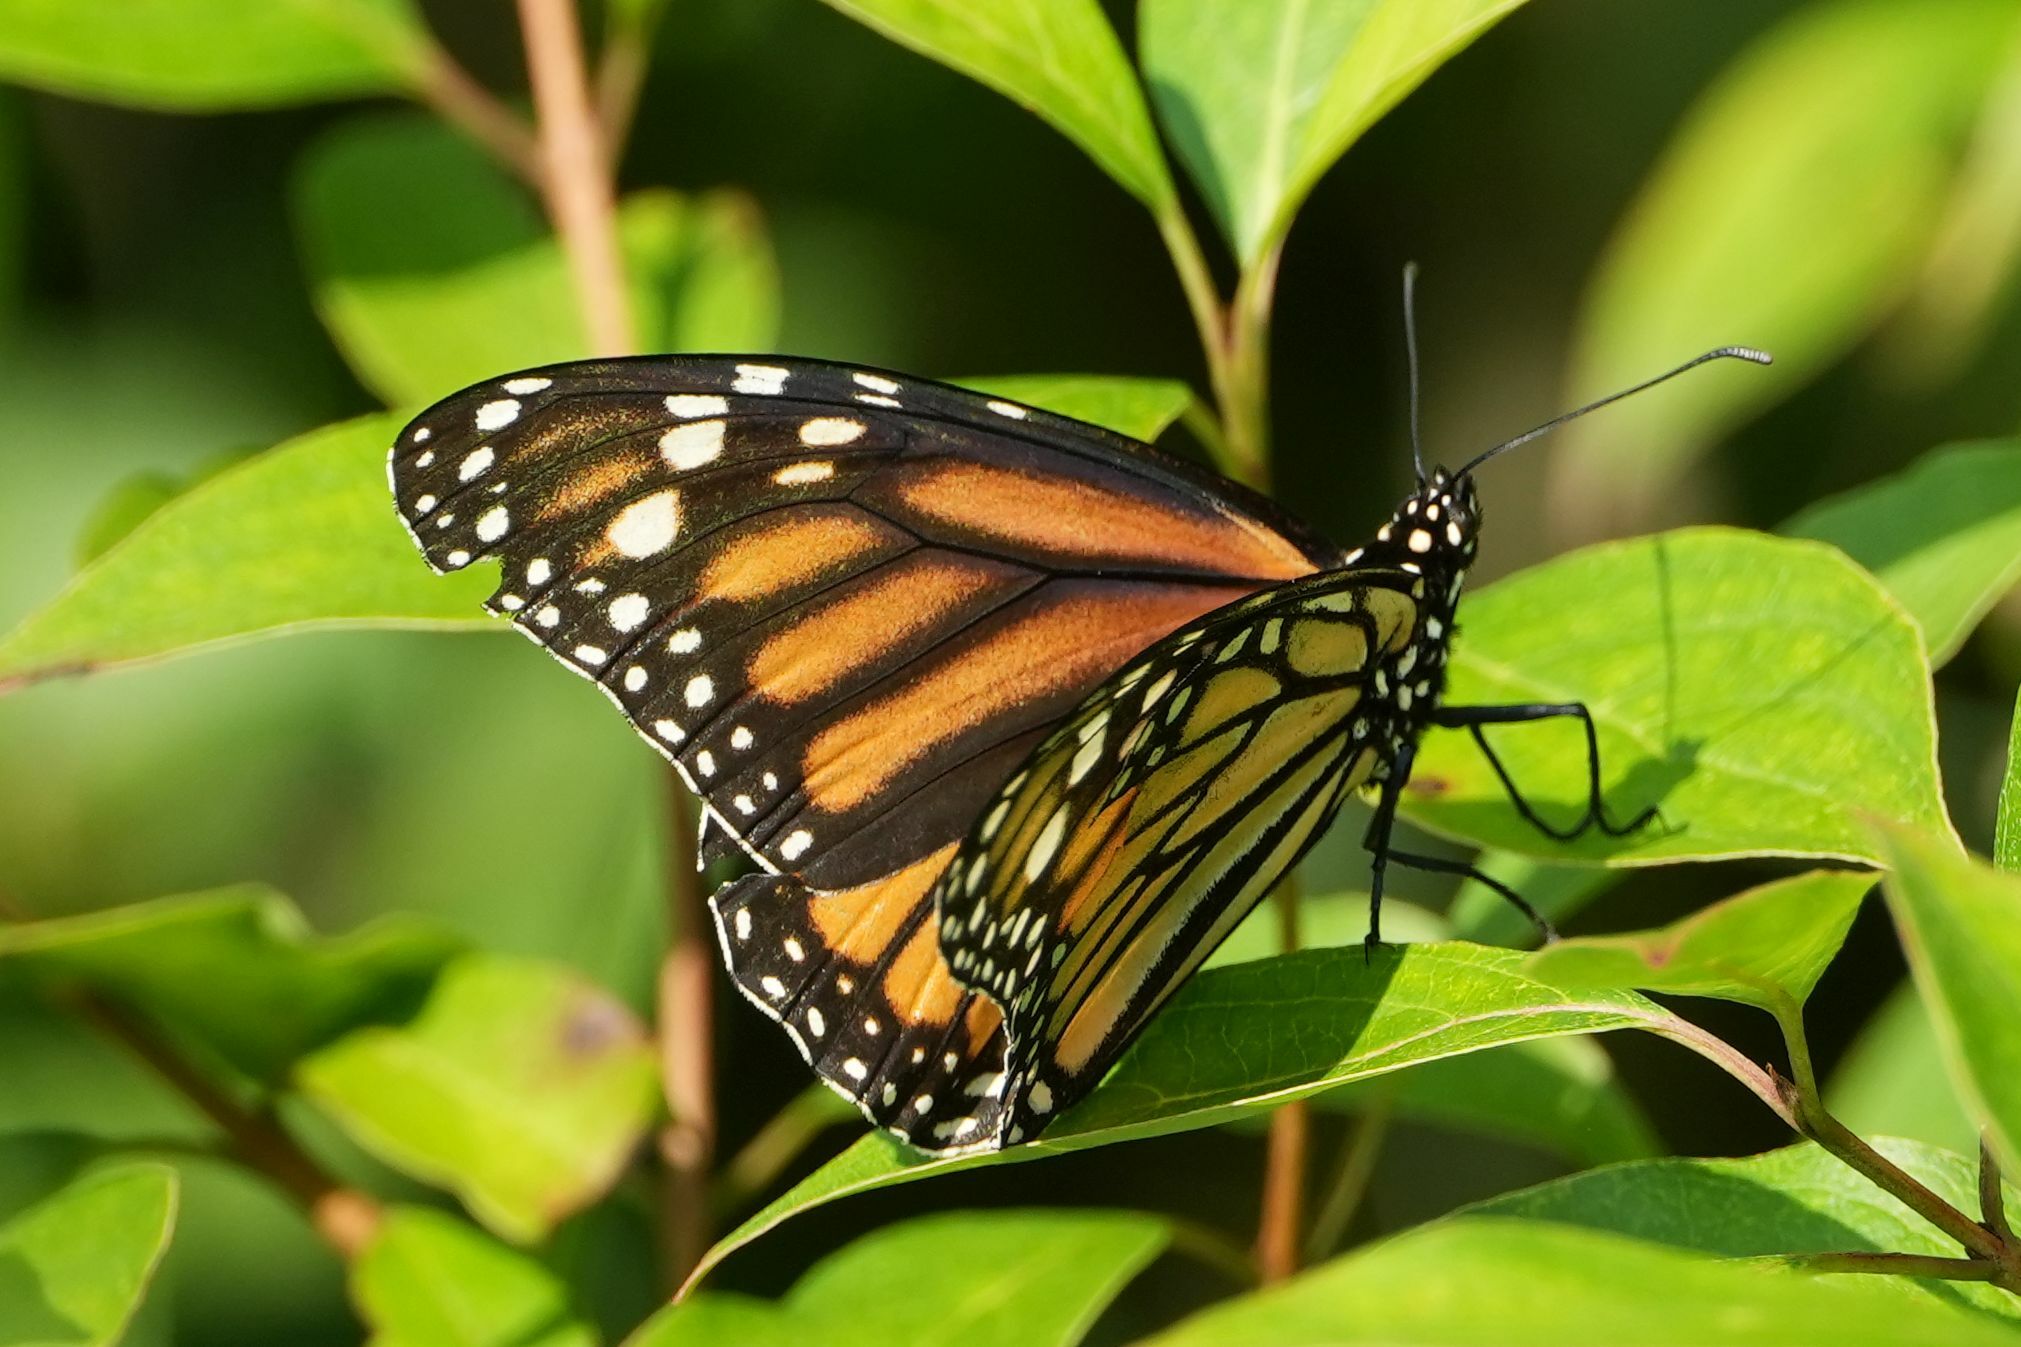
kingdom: Animalia
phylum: Arthropoda
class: Insecta
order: Lepidoptera
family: Nymphalidae
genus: Danaus
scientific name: Danaus plexippus
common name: Monarch
